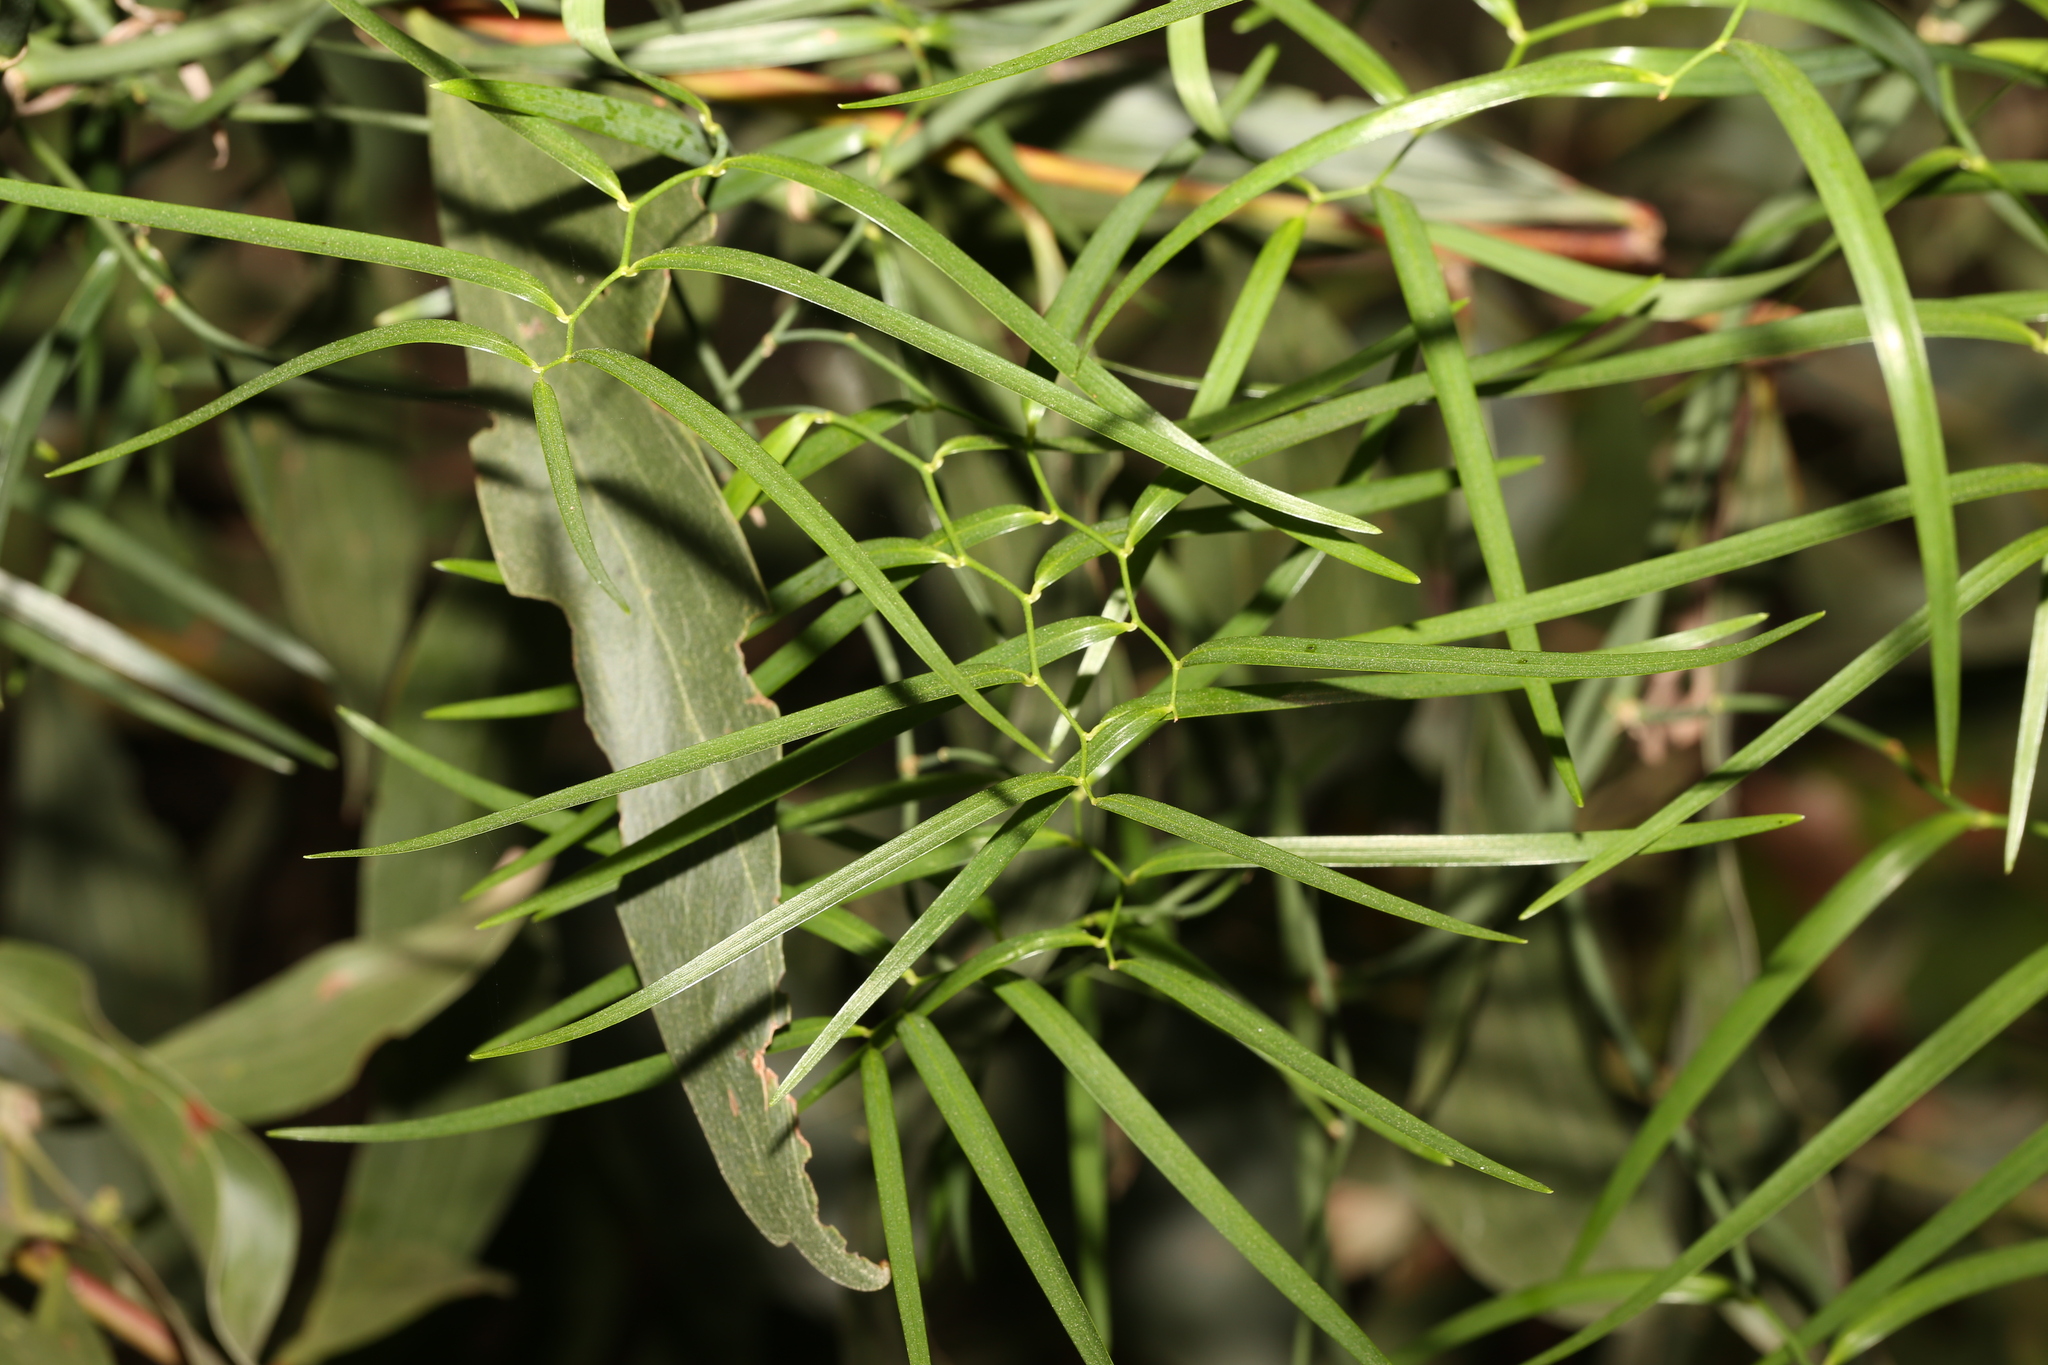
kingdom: Plantae
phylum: Tracheophyta
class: Liliopsida
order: Asparagales
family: Asphodelaceae
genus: Geitonoplesium
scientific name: Geitonoplesium cymosum
